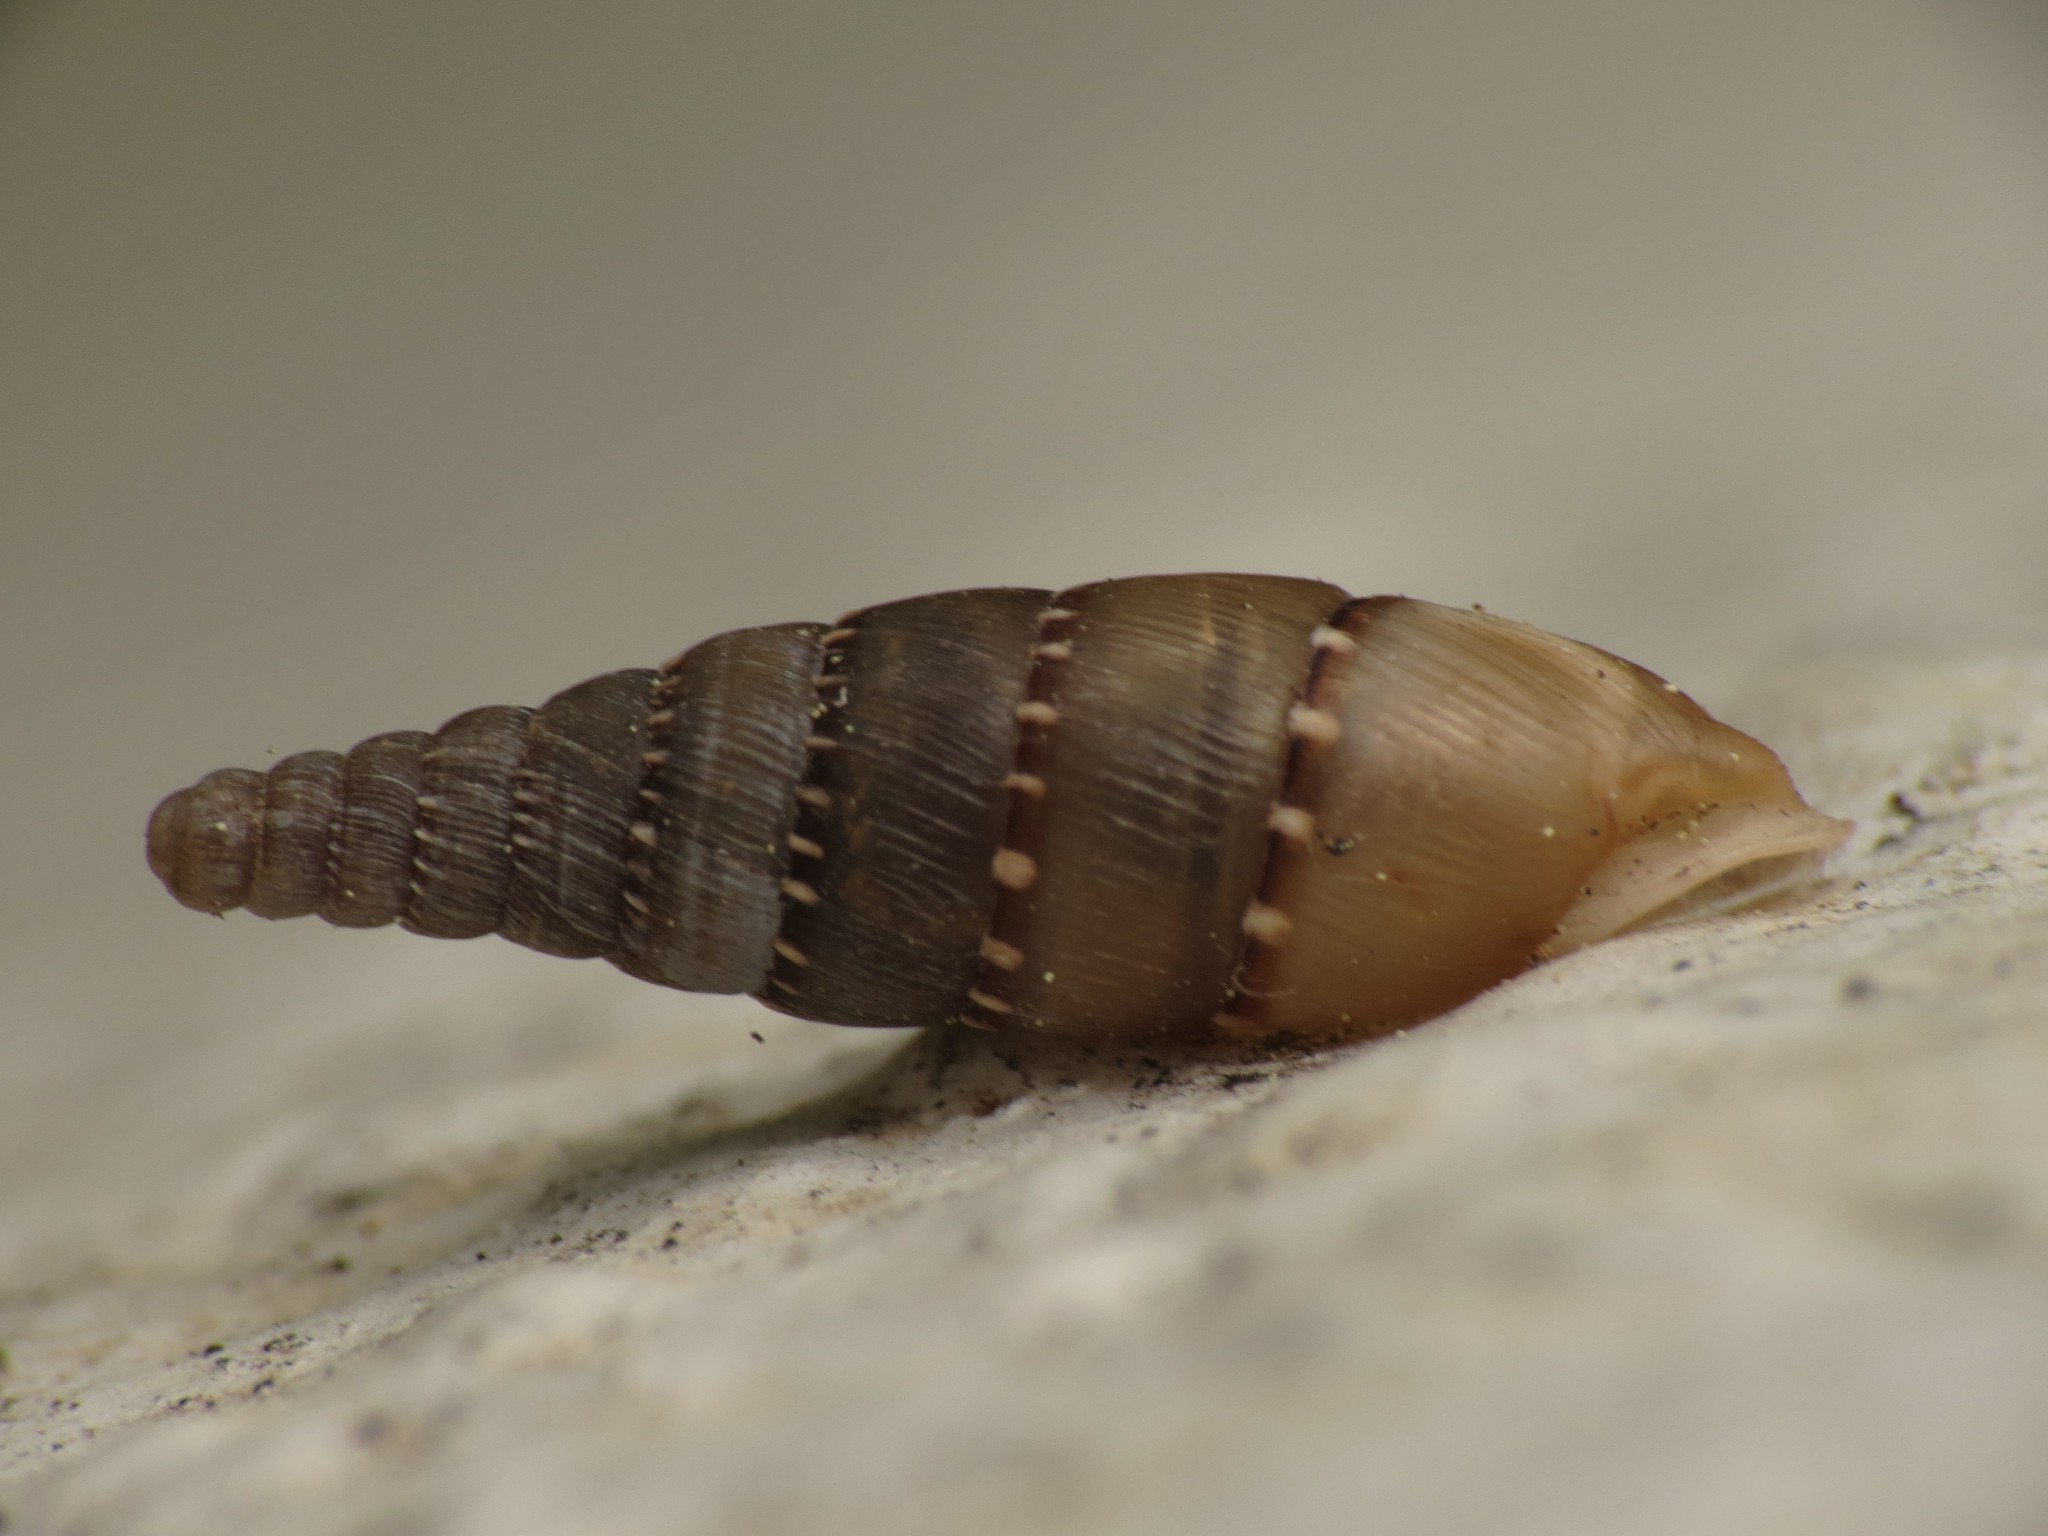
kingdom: Animalia
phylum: Mollusca
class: Gastropoda
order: Stylommatophora
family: Clausiliidae
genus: Papillifera
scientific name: Papillifera papillaris
